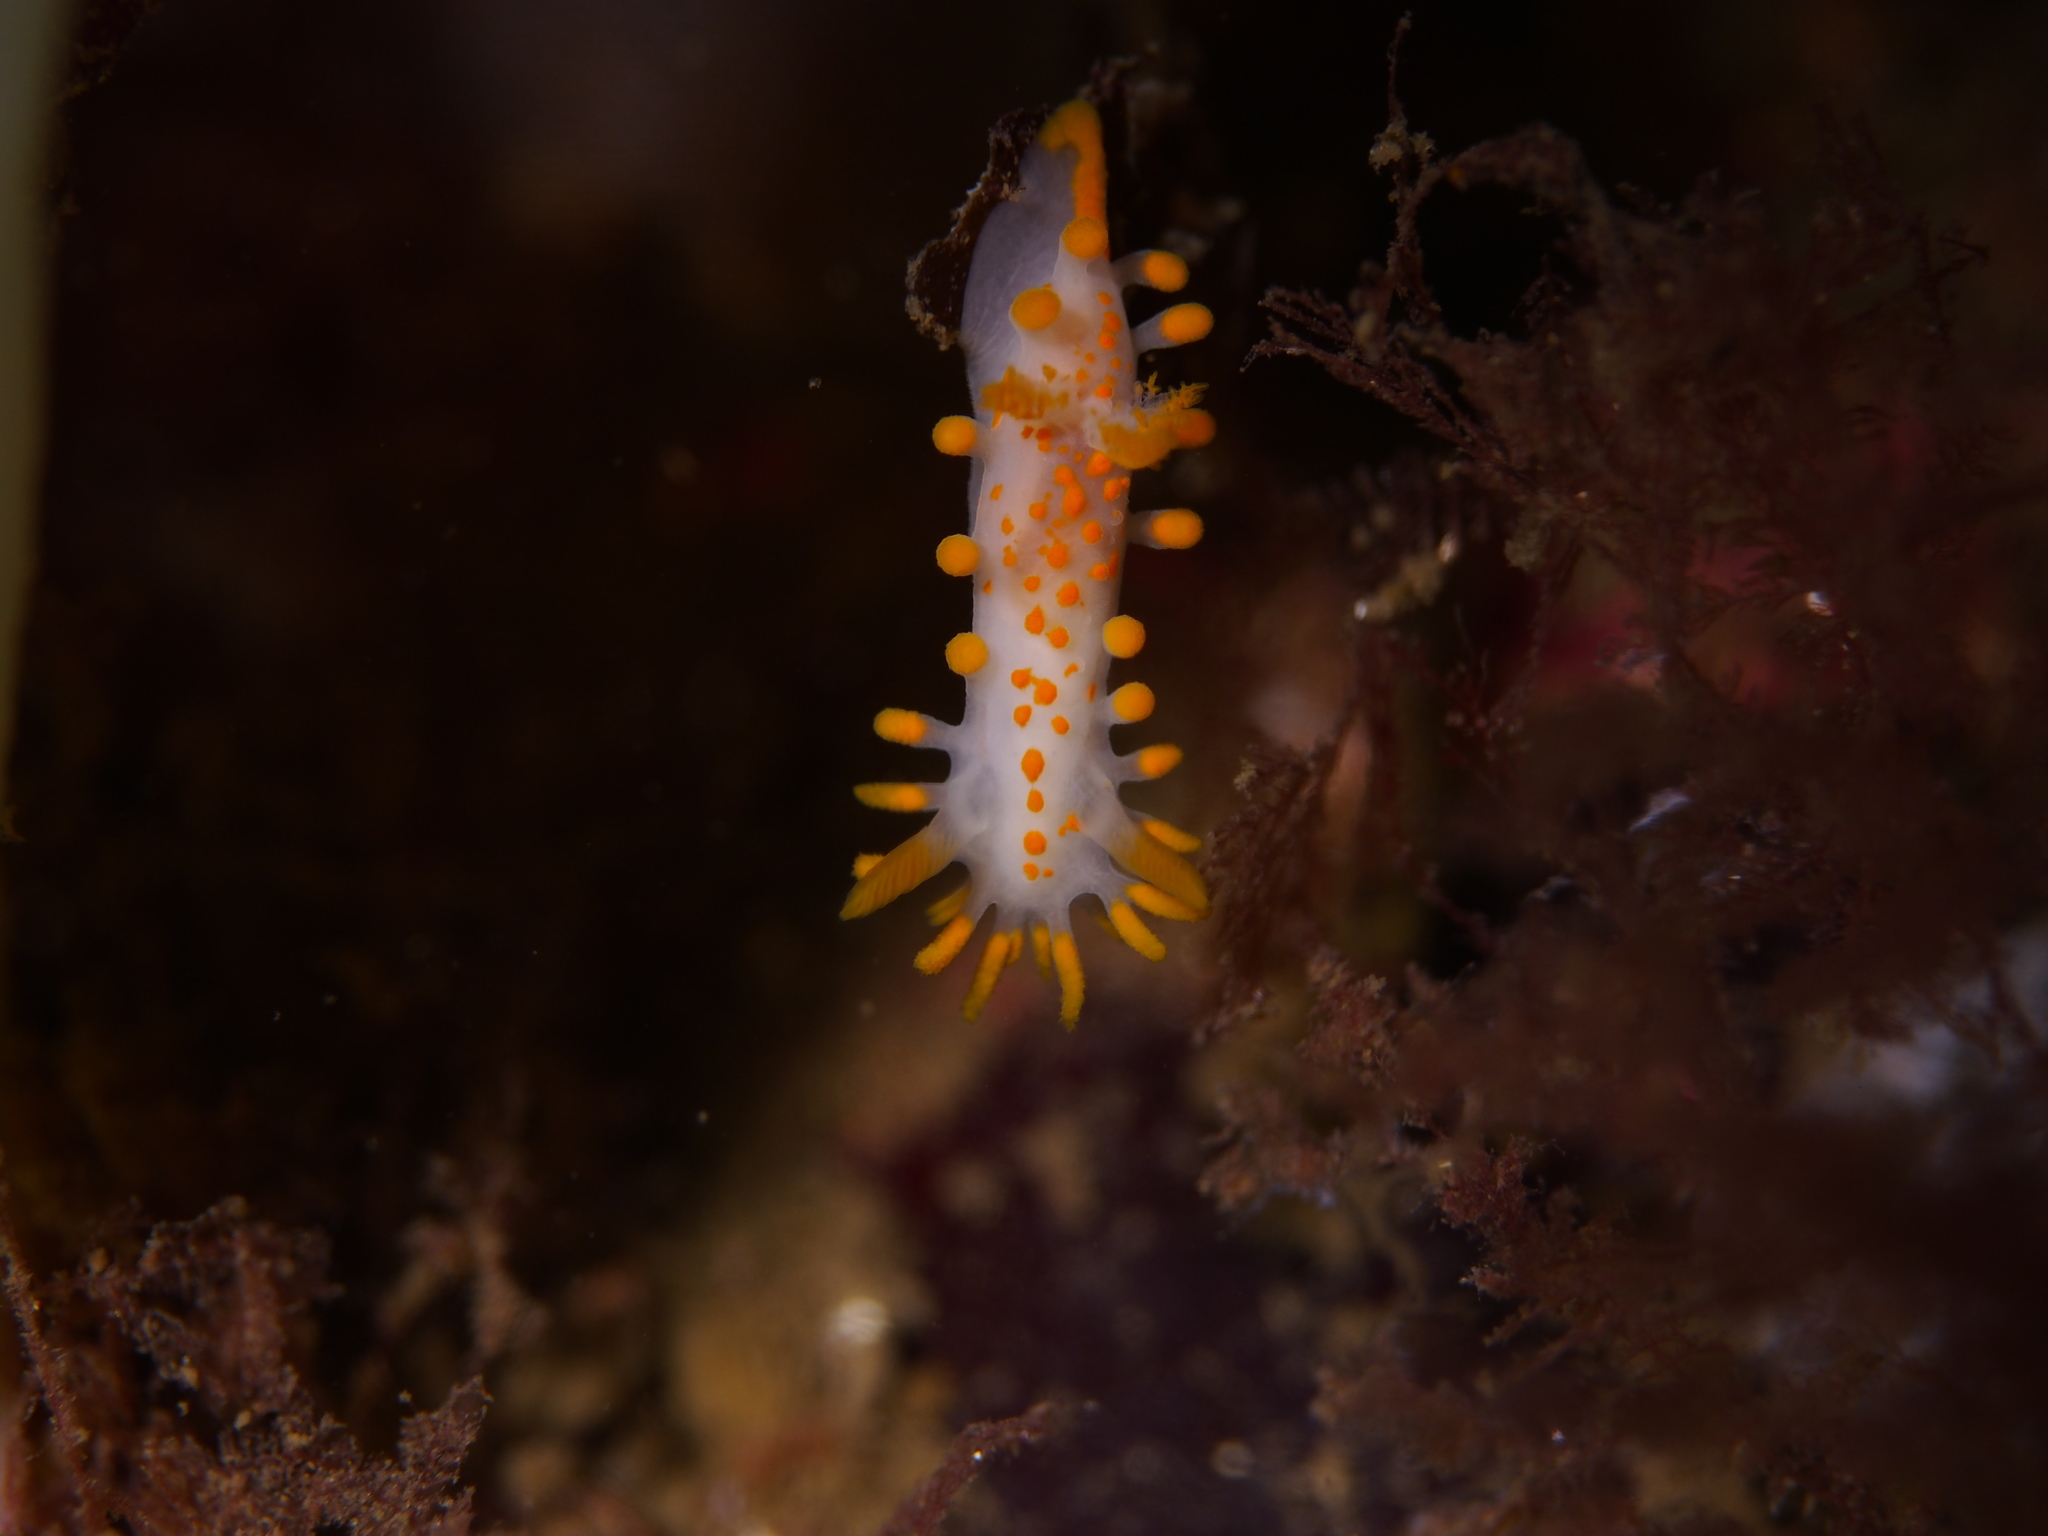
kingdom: Animalia
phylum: Mollusca
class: Gastropoda
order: Nudibranchia
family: Polyceridae
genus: Limacia
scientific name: Limacia clavigera
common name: Orange-clubbed sea slug
